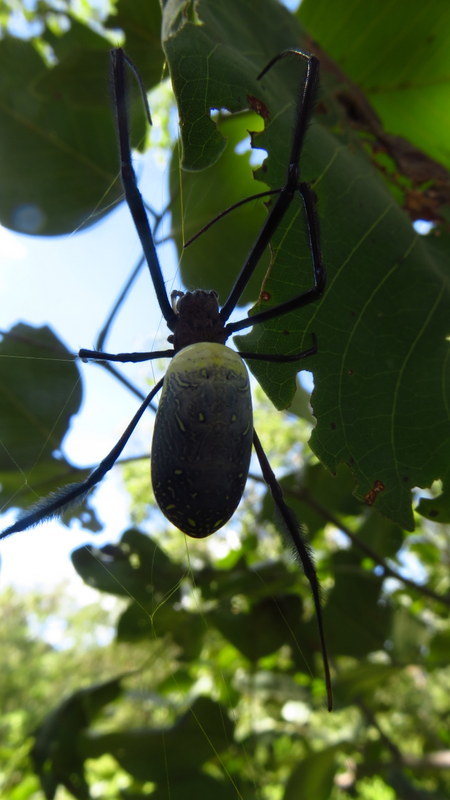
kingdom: Animalia
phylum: Arthropoda
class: Arachnida
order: Araneae
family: Araneidae
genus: Trichonephila
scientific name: Trichonephila fenestrata
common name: Hairy golden orb weaver
